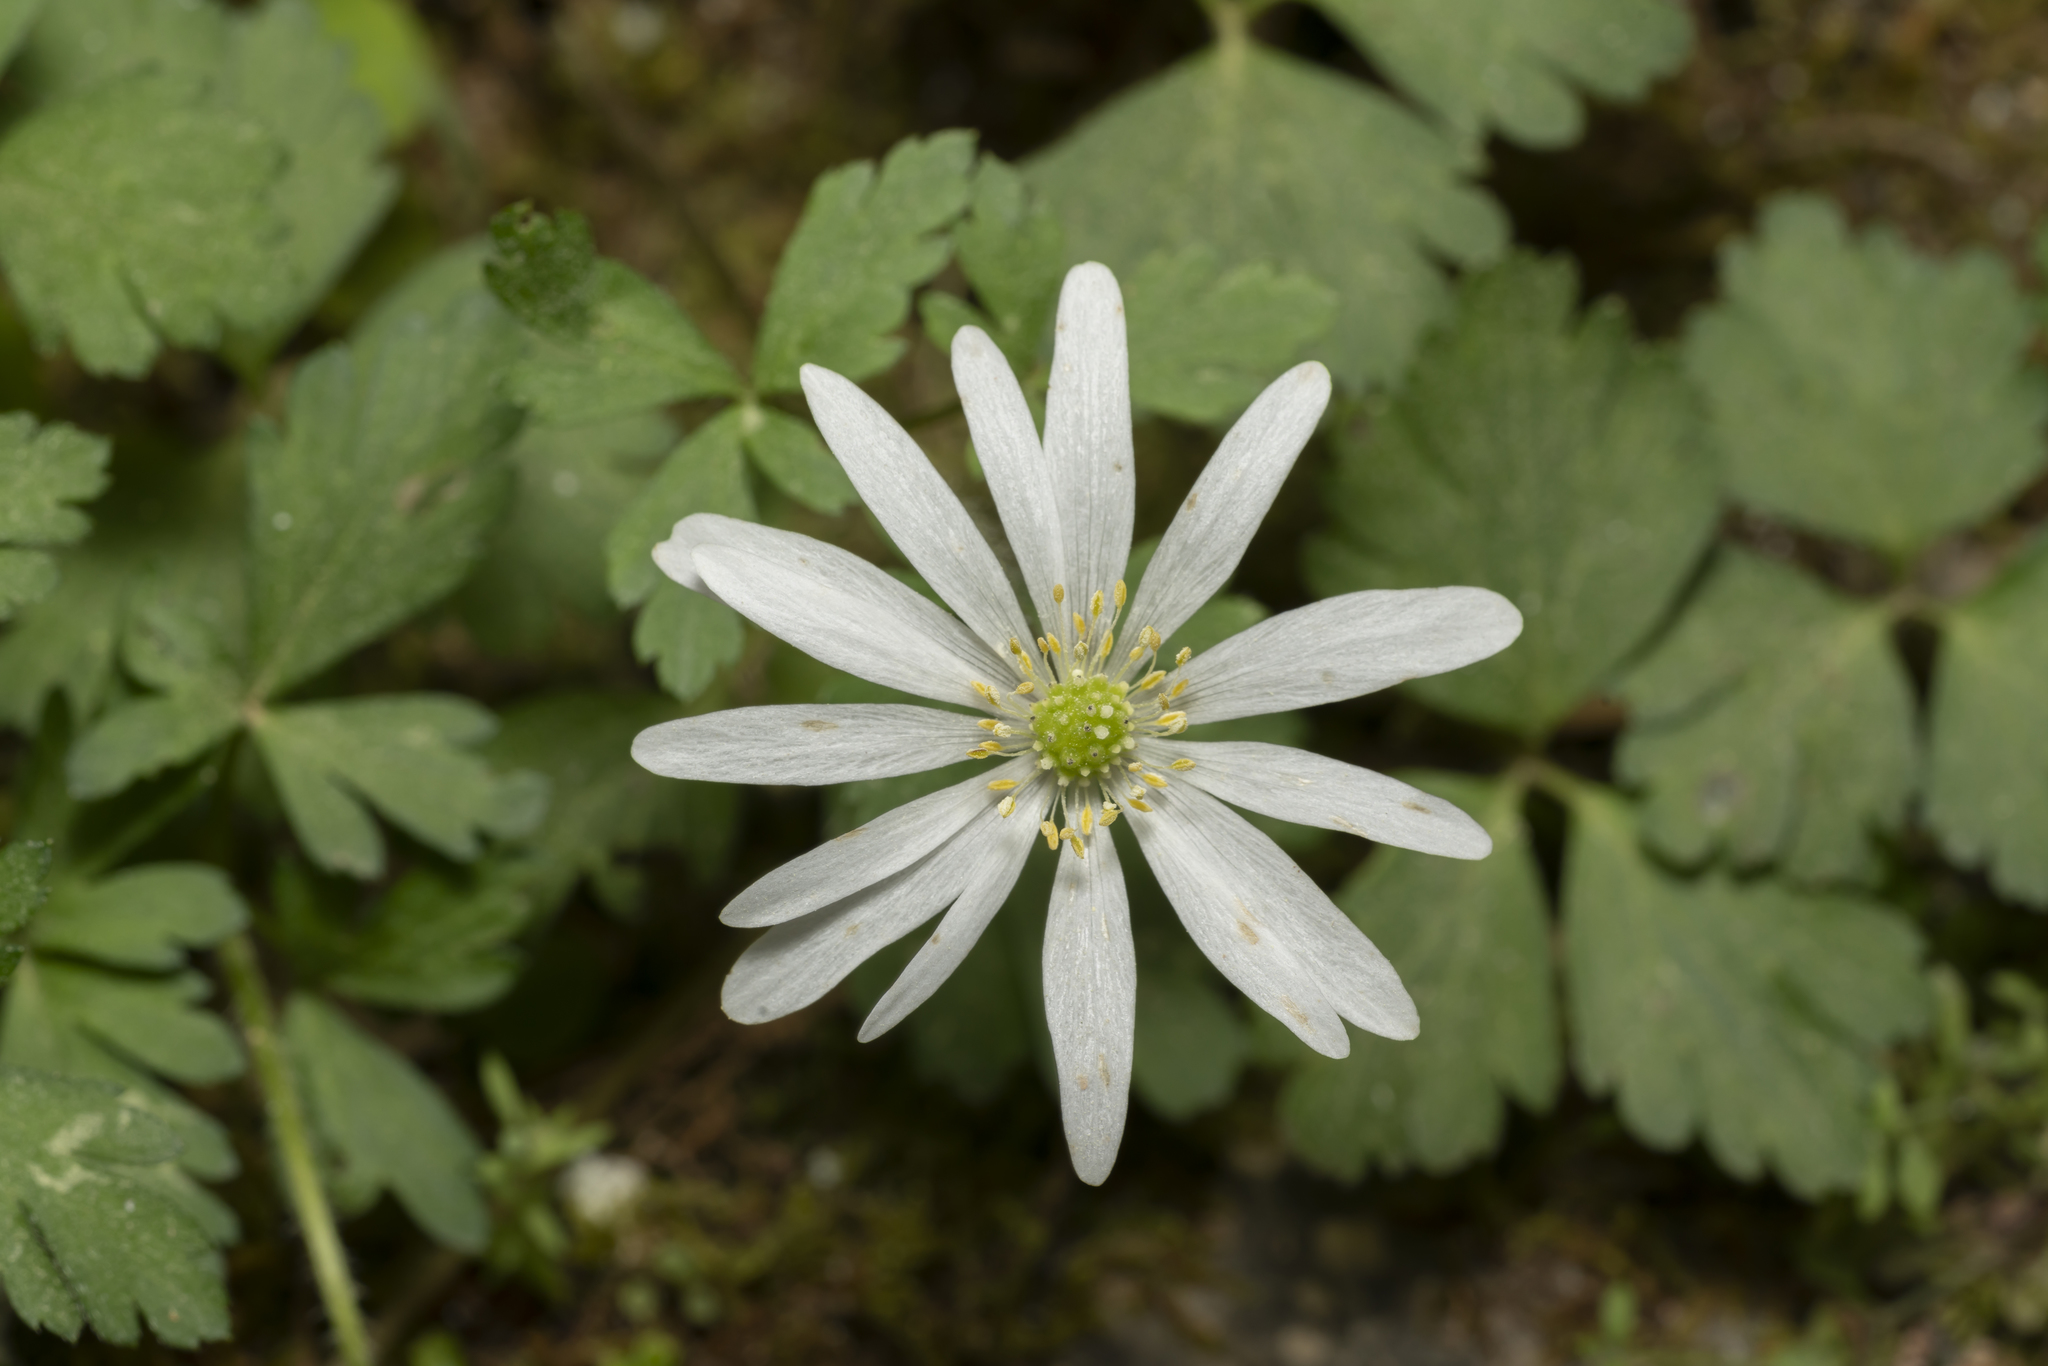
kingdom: Plantae
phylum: Tracheophyta
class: Magnoliopsida
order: Ranunculales
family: Ranunculaceae
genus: Anemone
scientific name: Anemone blanda
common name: Balkan anemone
